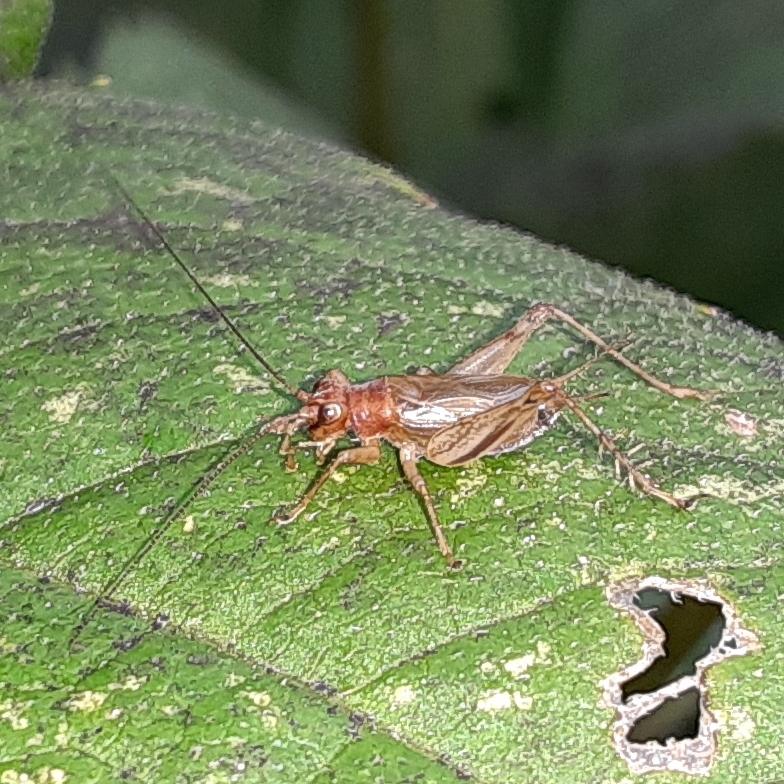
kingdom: Animalia
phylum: Arthropoda
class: Insecta
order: Orthoptera
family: Trigonidiidae
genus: Anaxipha
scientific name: Anaxipha exigua
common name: Say's bush cricket
